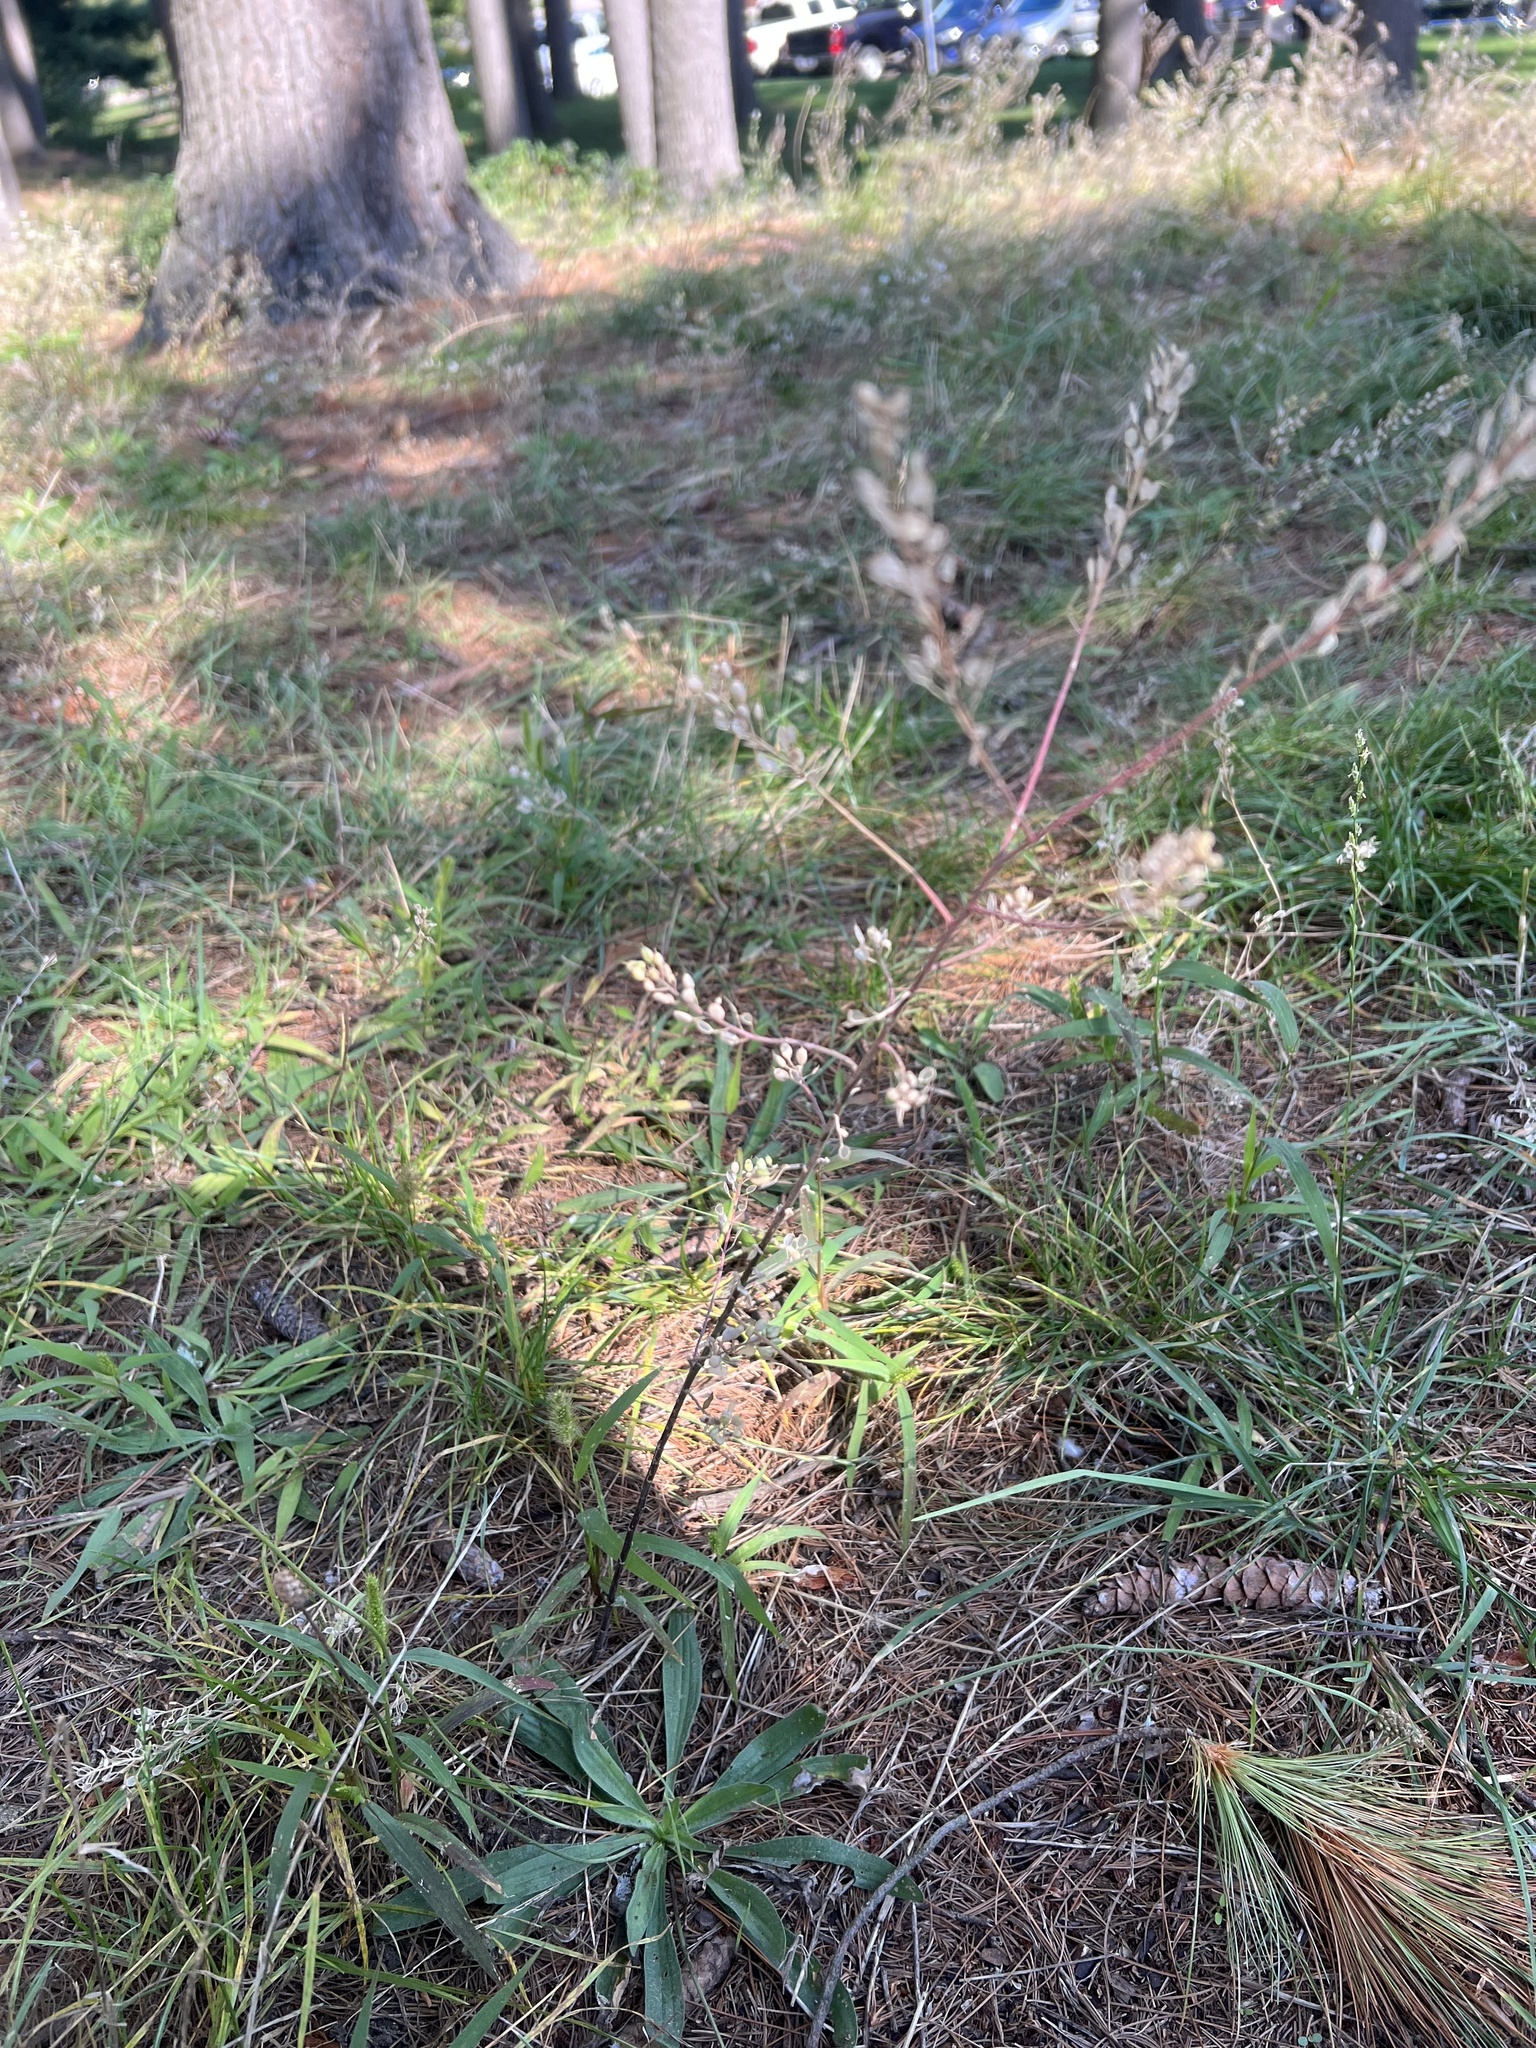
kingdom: Plantae
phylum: Tracheophyta
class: Magnoliopsida
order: Brassicales
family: Brassicaceae
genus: Berteroa
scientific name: Berteroa incana
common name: Hoary alison
